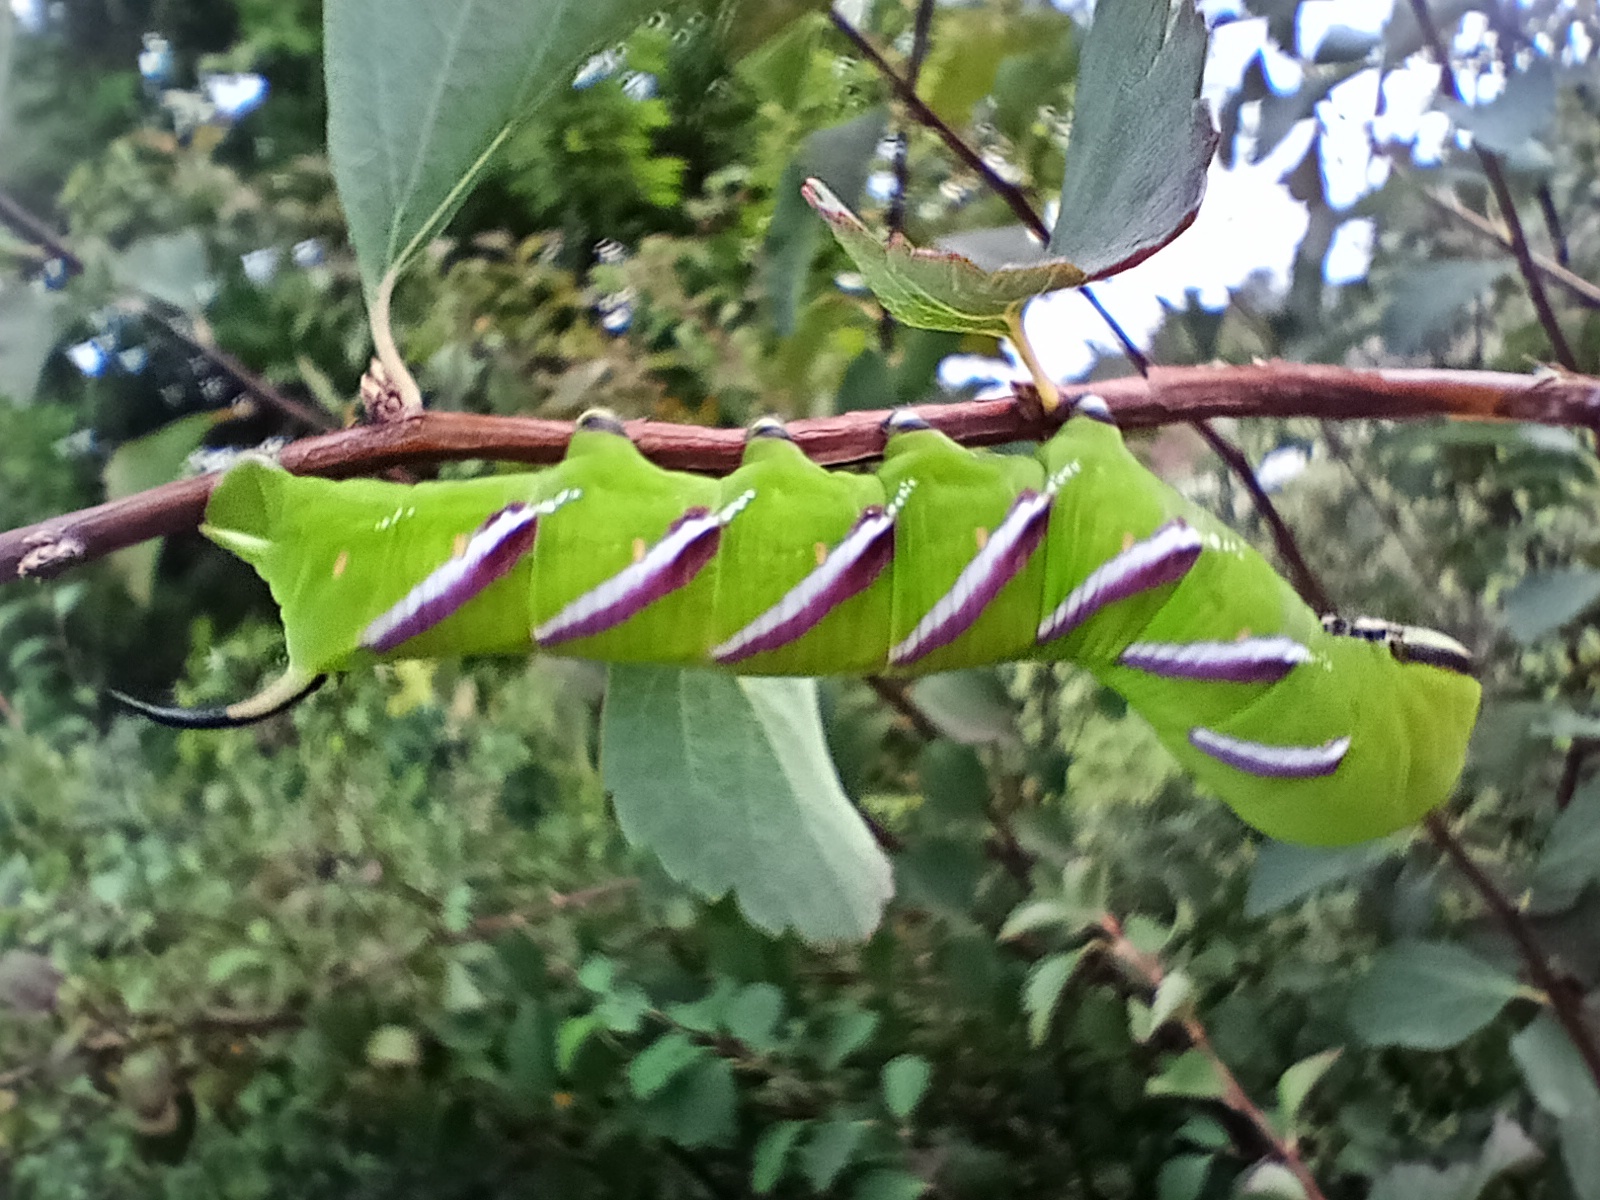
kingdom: Animalia
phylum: Arthropoda
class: Insecta
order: Lepidoptera
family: Sphingidae
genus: Sphinx
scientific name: Sphinx ligustri
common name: Privet hawk-moth
